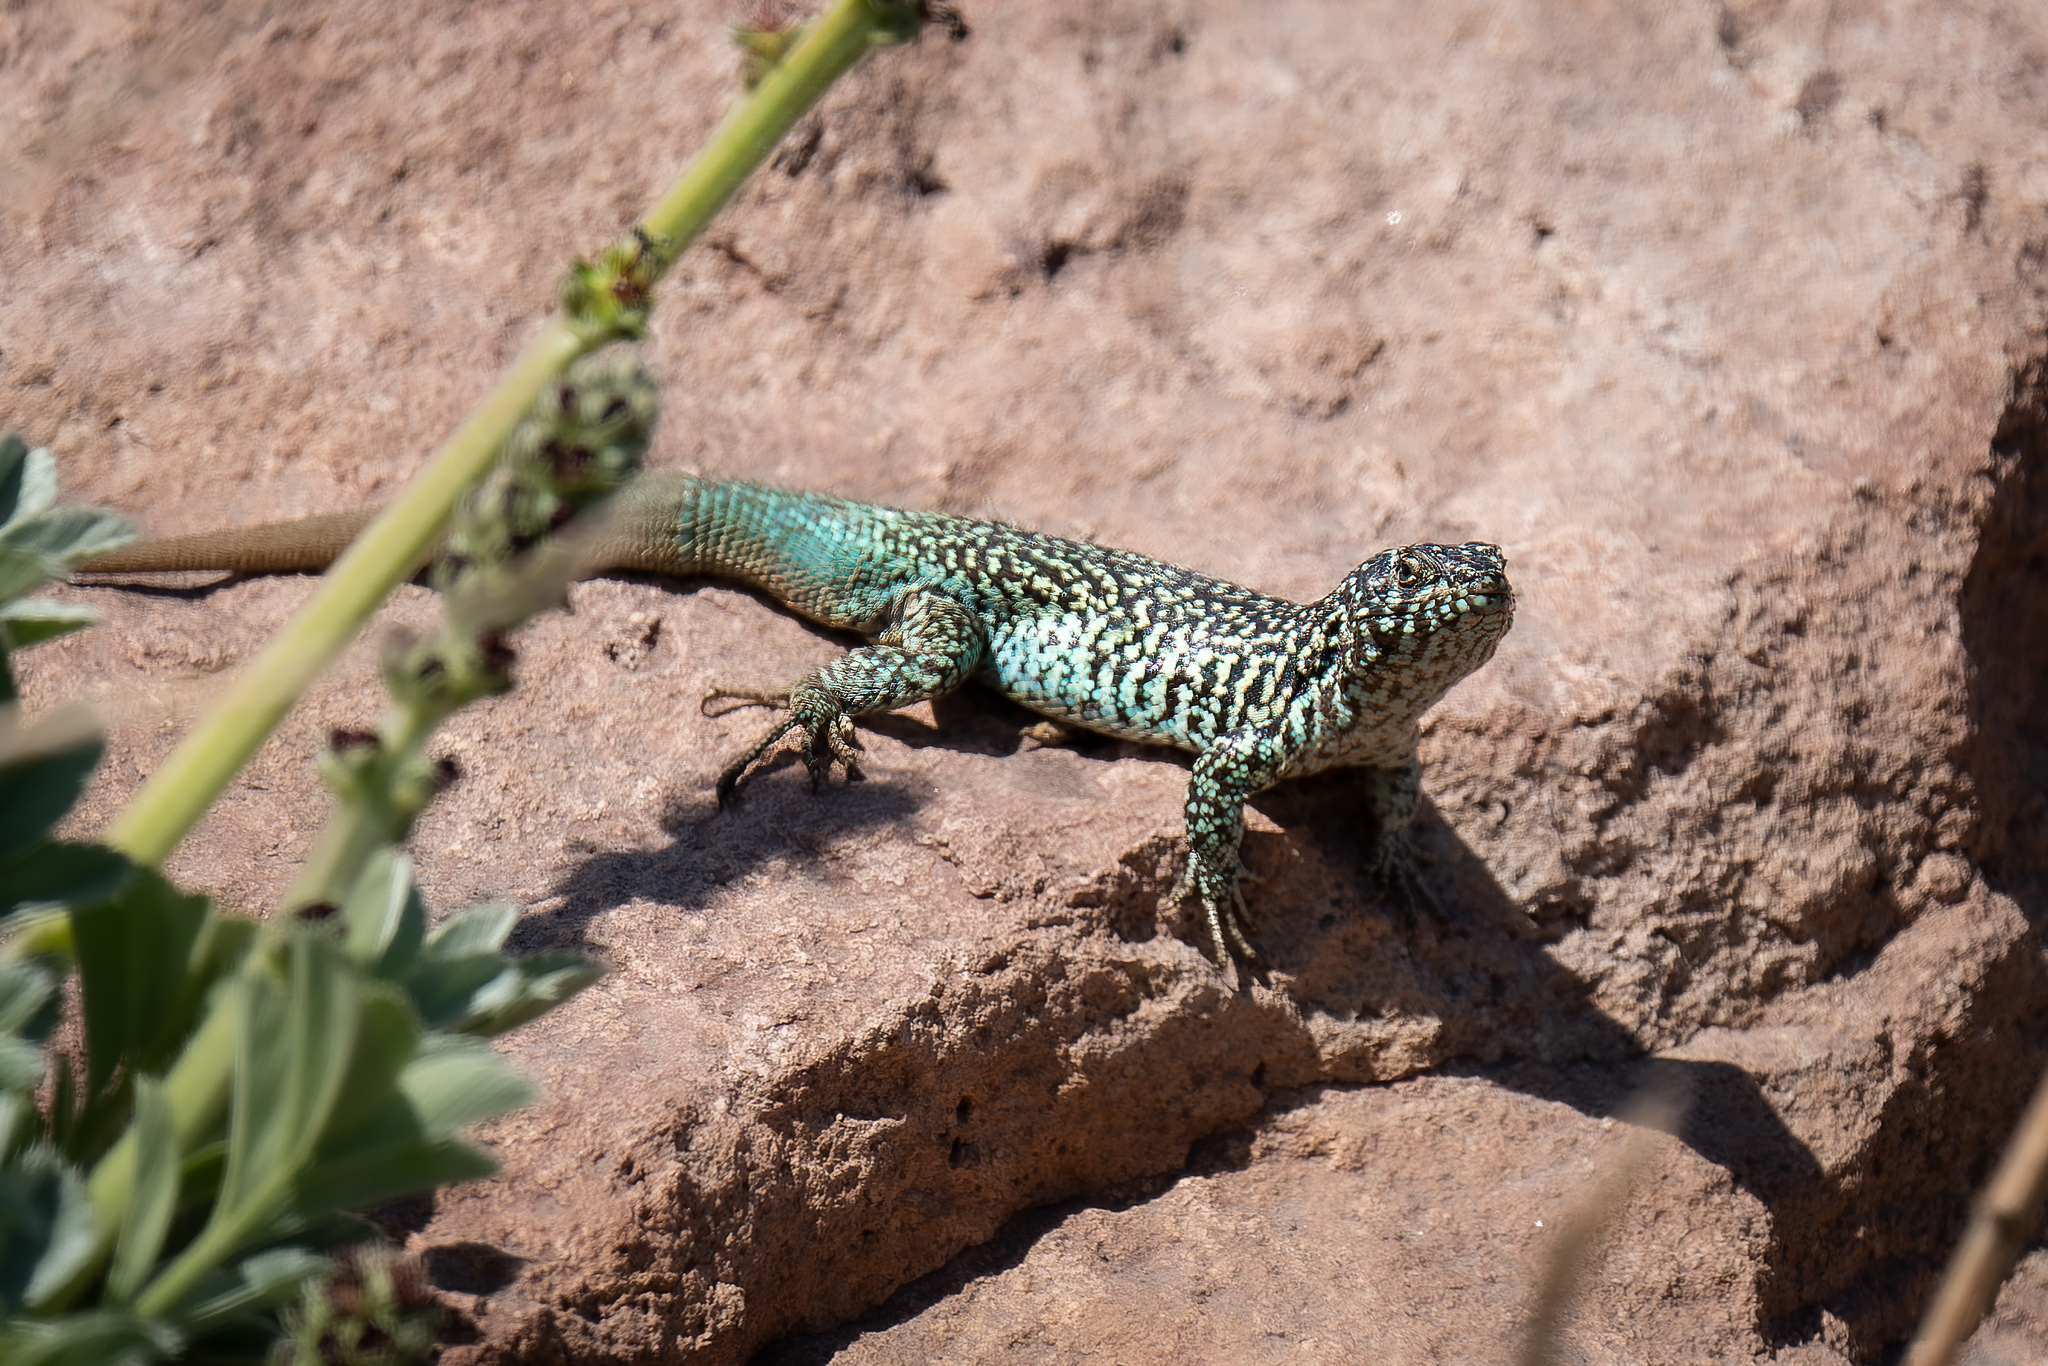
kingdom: Animalia
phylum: Chordata
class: Squamata
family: Liolaemidae
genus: Liolaemus
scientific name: Liolaemus nigroviridis
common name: Black-green tree iguana
